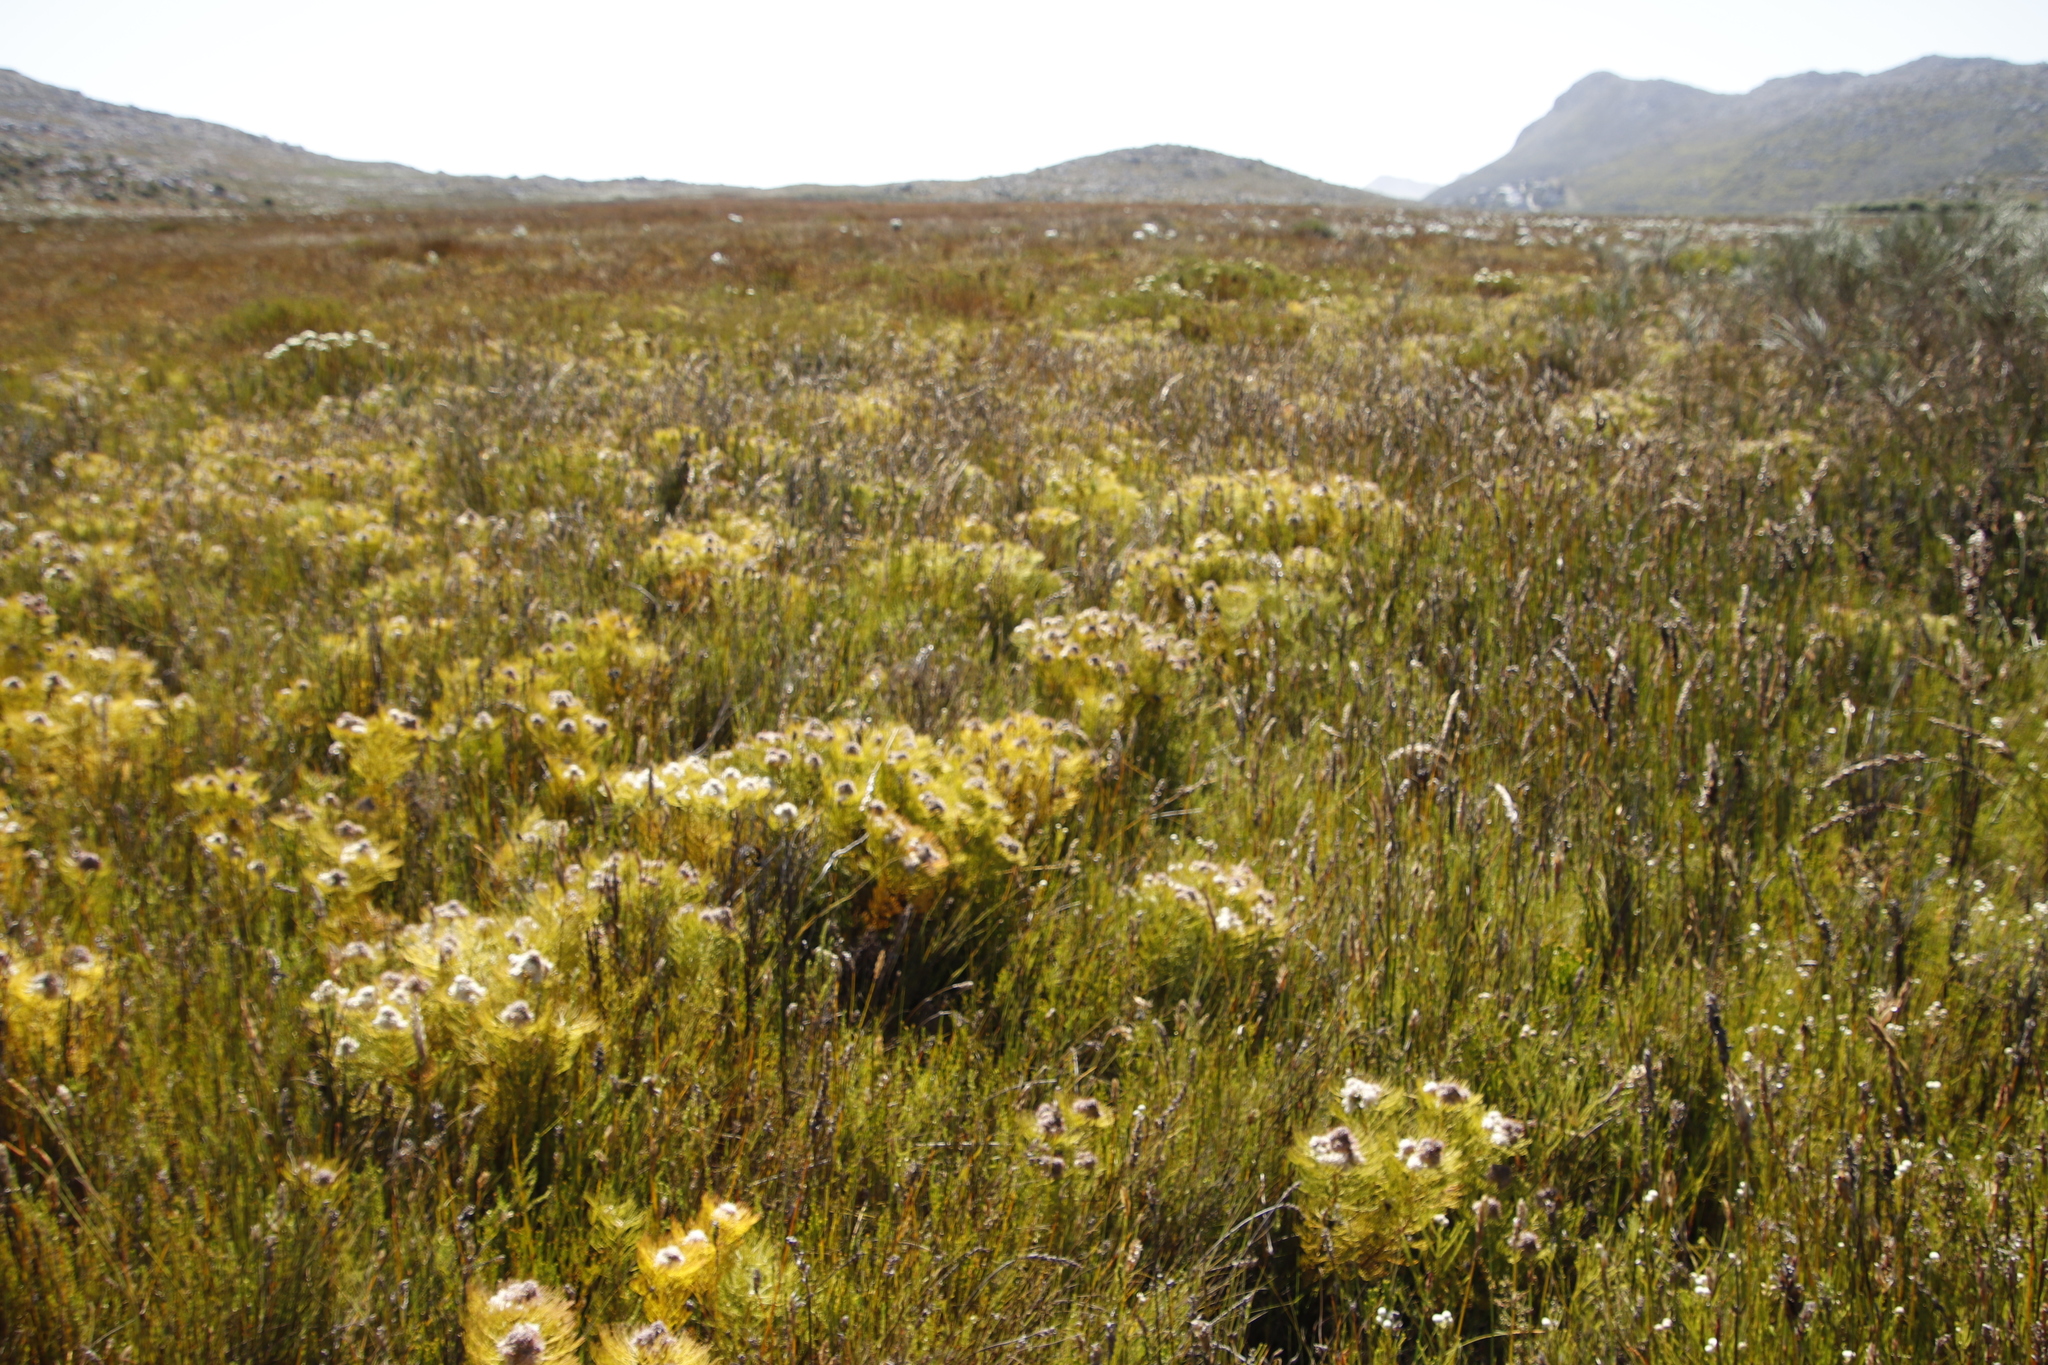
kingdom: Plantae
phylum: Tracheophyta
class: Magnoliopsida
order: Proteales
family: Proteaceae
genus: Serruria
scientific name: Serruria glomerata
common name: Cluster spiderhead
